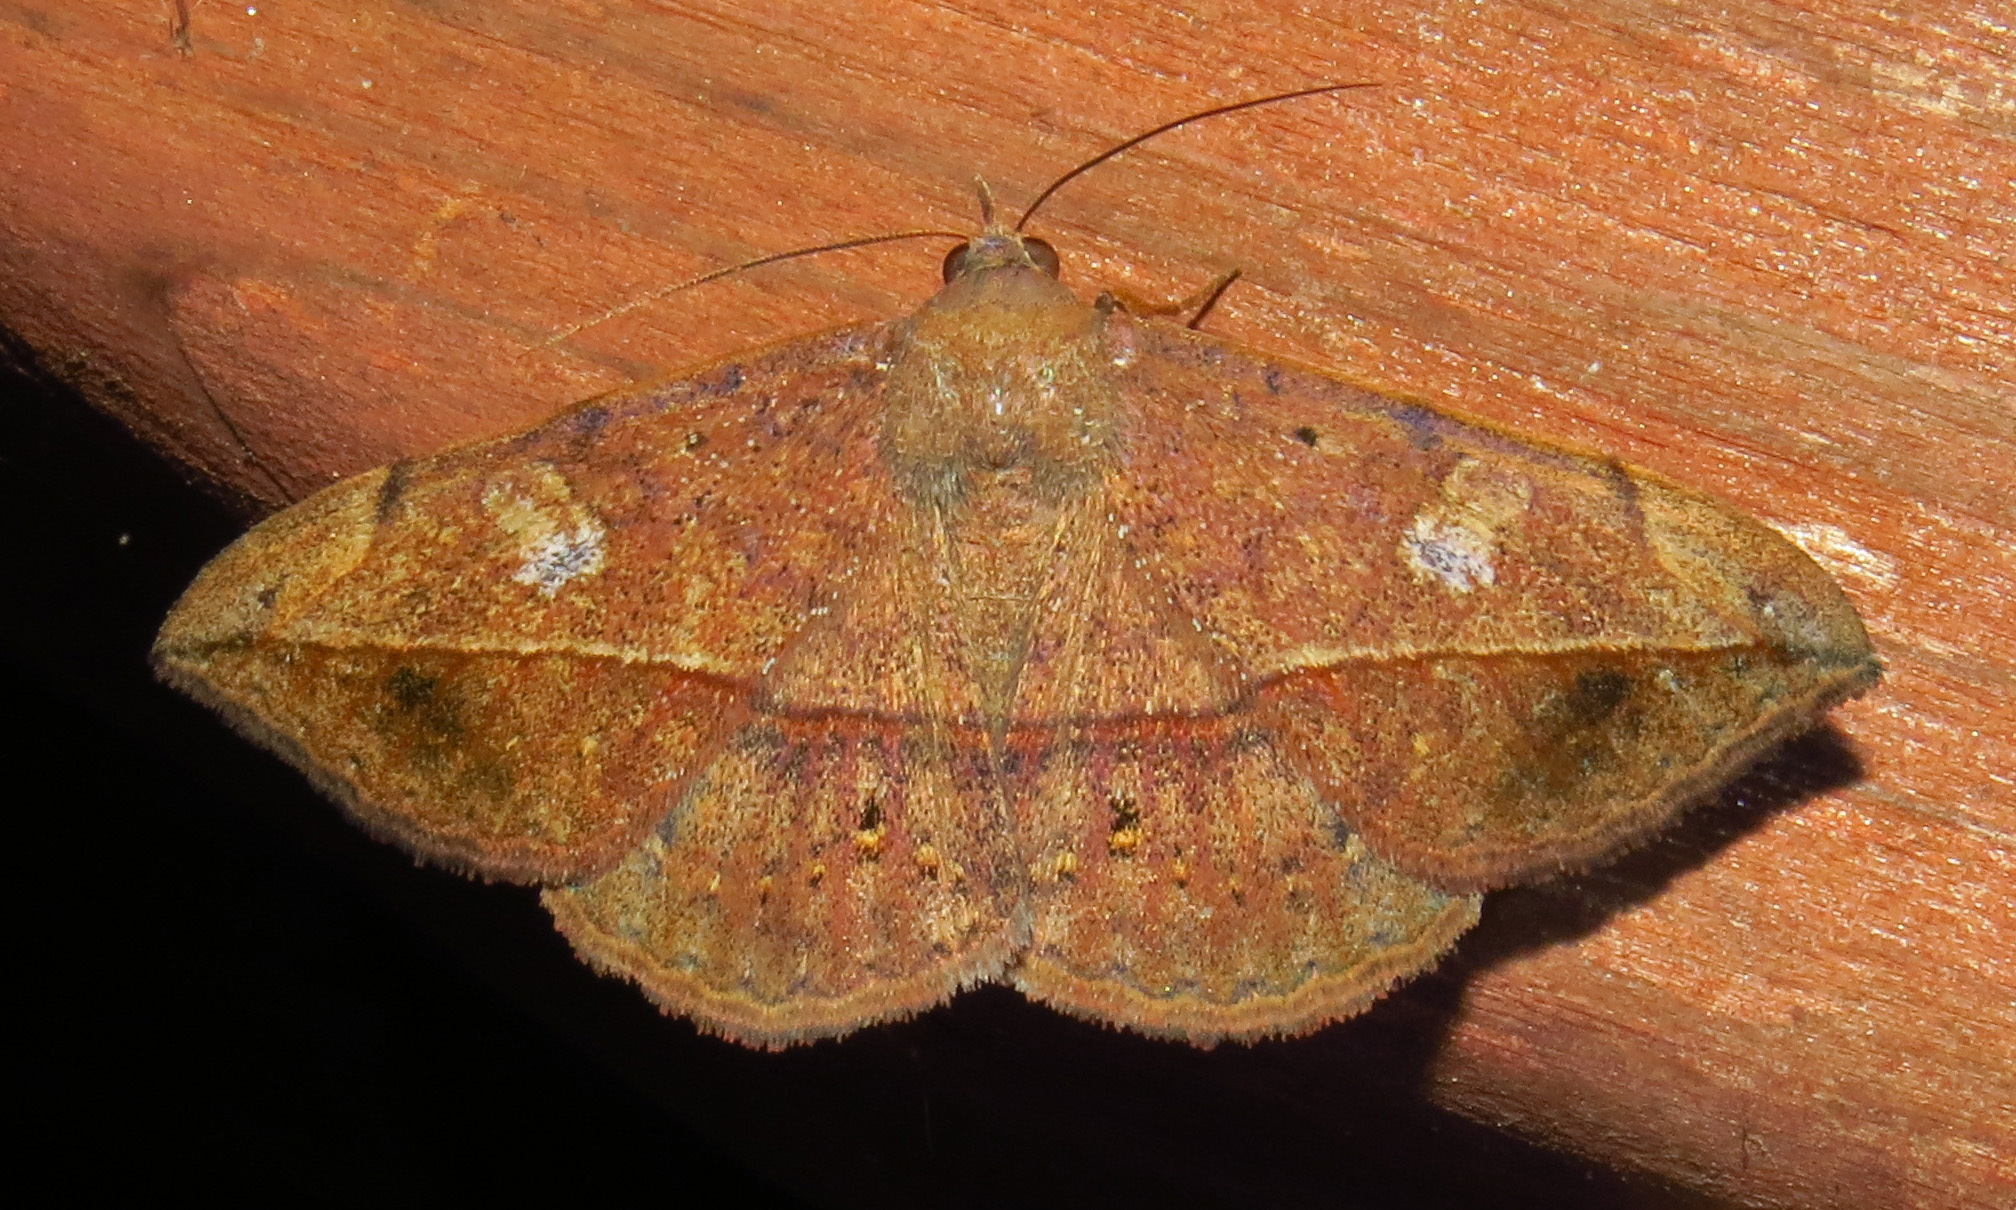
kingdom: Animalia
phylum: Arthropoda
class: Insecta
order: Lepidoptera
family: Erebidae
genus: Anticarsia
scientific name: Anticarsia gemmatalis
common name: Cutworm moth
